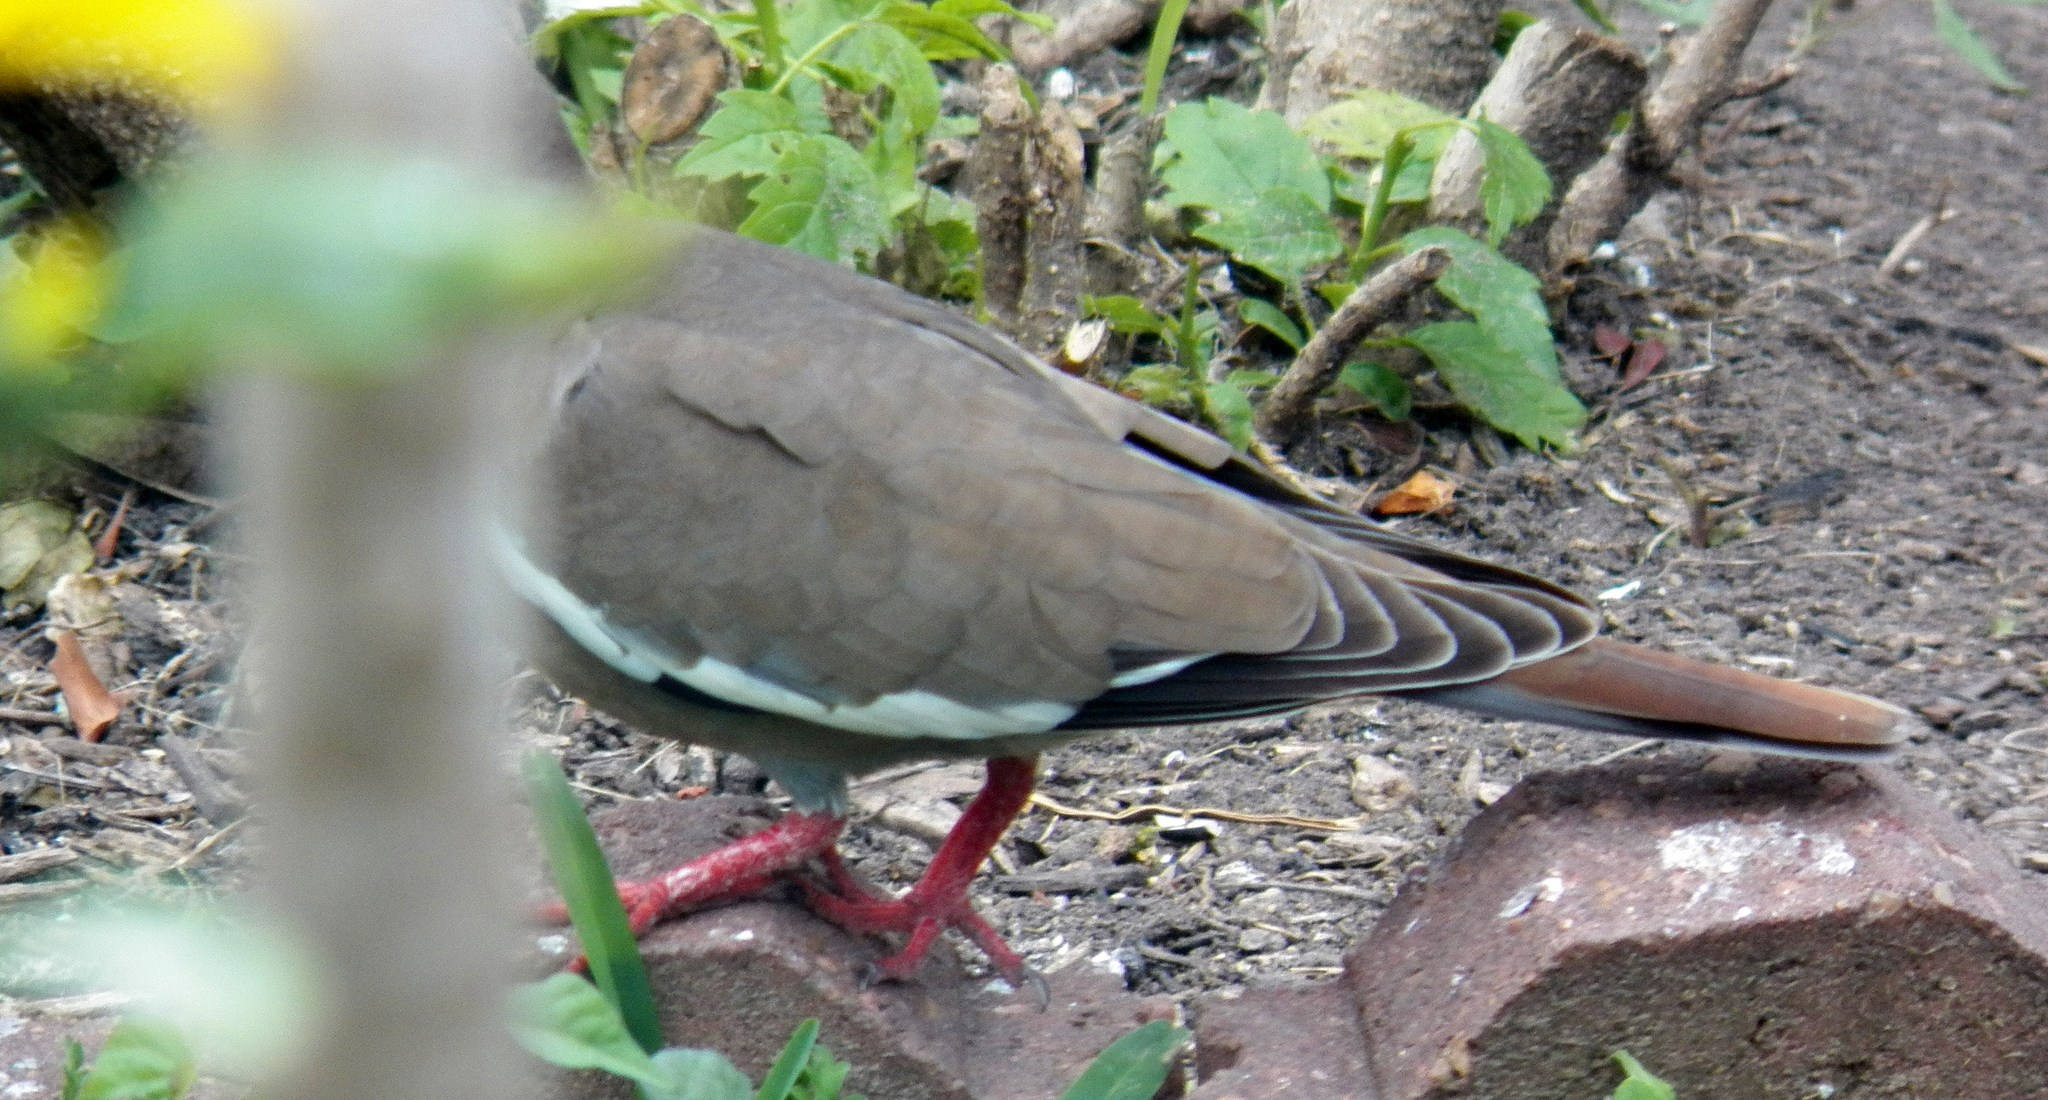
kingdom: Animalia
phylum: Chordata
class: Aves
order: Columbiformes
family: Columbidae
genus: Zenaida
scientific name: Zenaida asiatica
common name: White-winged dove
